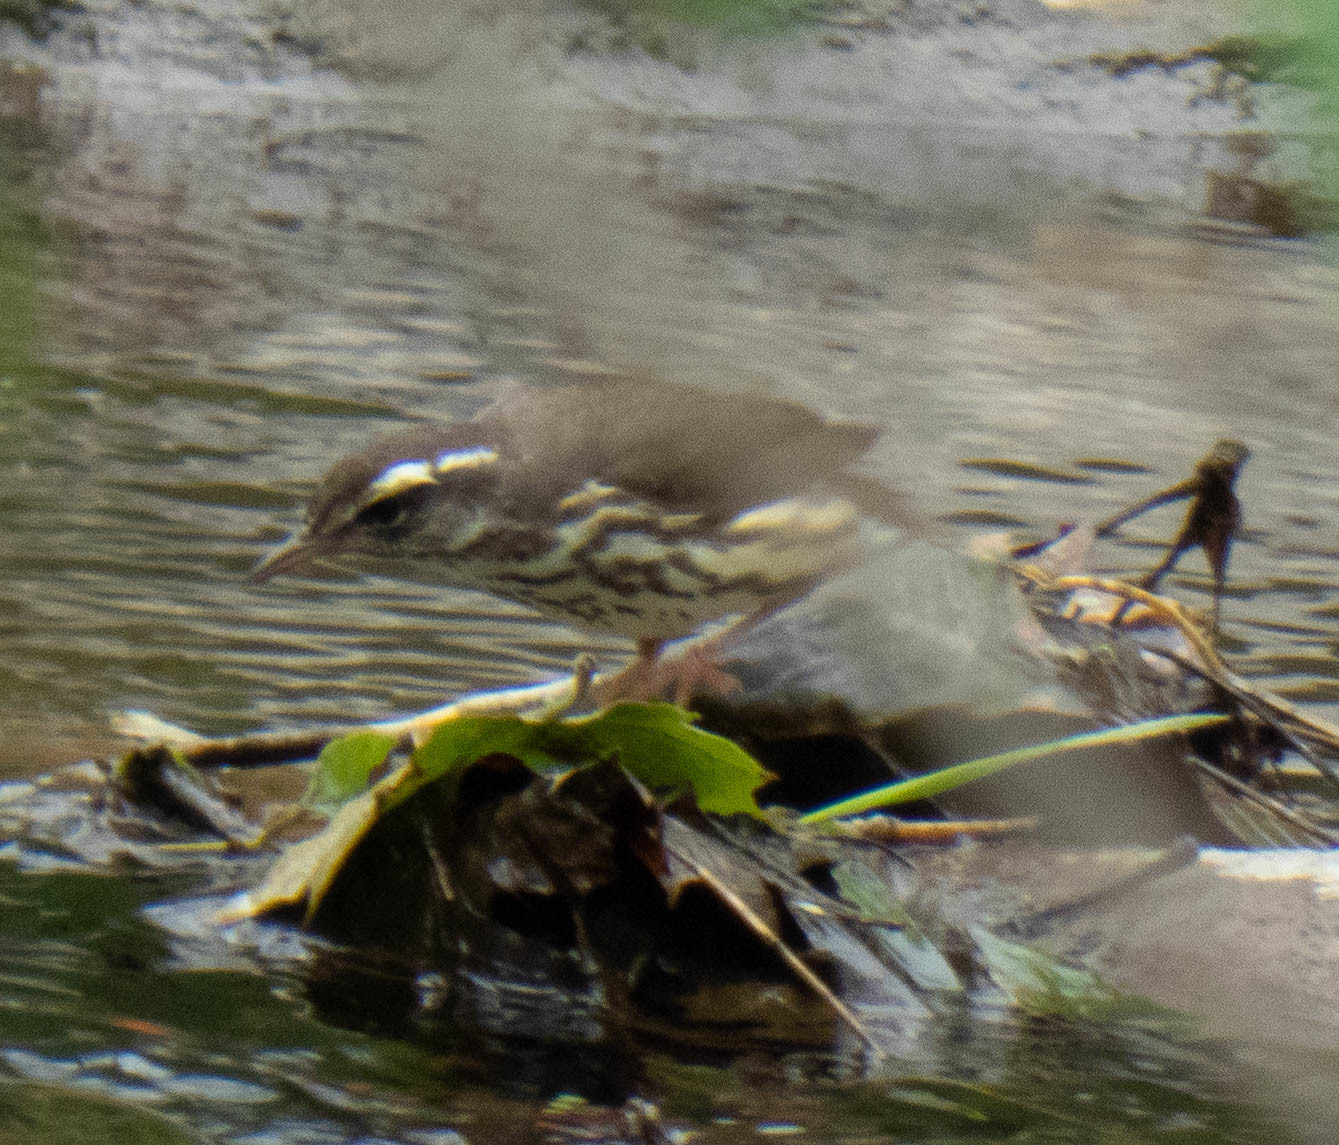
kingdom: Animalia
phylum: Chordata
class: Aves
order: Passeriformes
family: Parulidae
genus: Parkesia
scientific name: Parkesia motacilla
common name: Louisiana waterthrush
